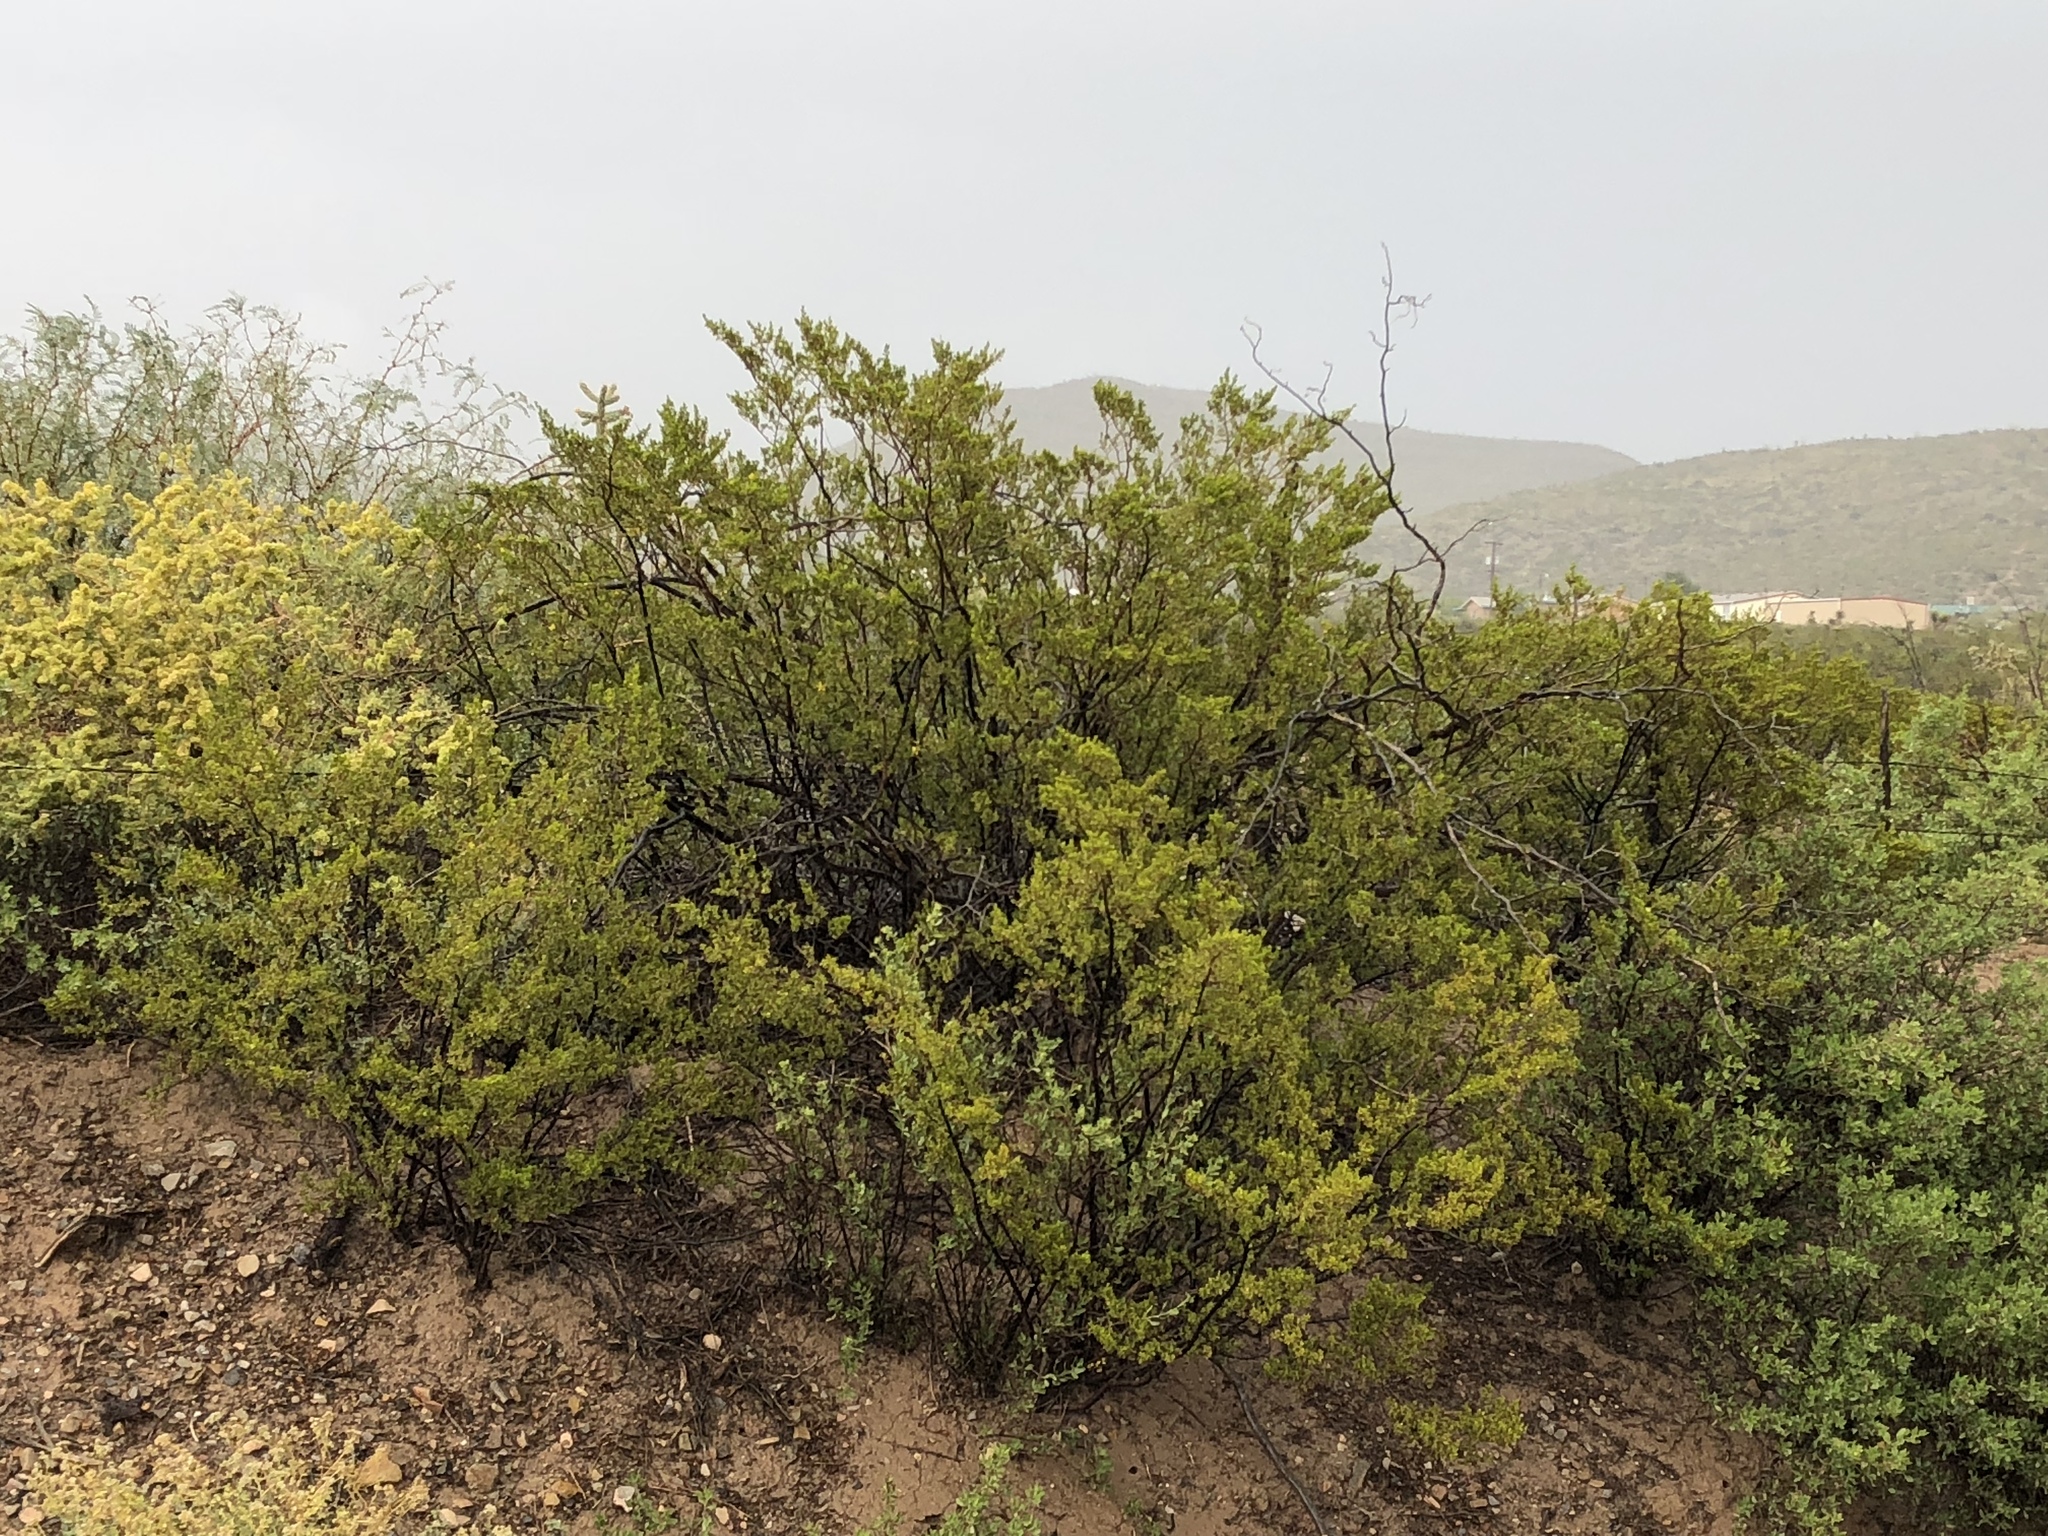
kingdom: Plantae
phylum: Tracheophyta
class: Magnoliopsida
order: Zygophyllales
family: Zygophyllaceae
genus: Larrea
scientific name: Larrea tridentata
